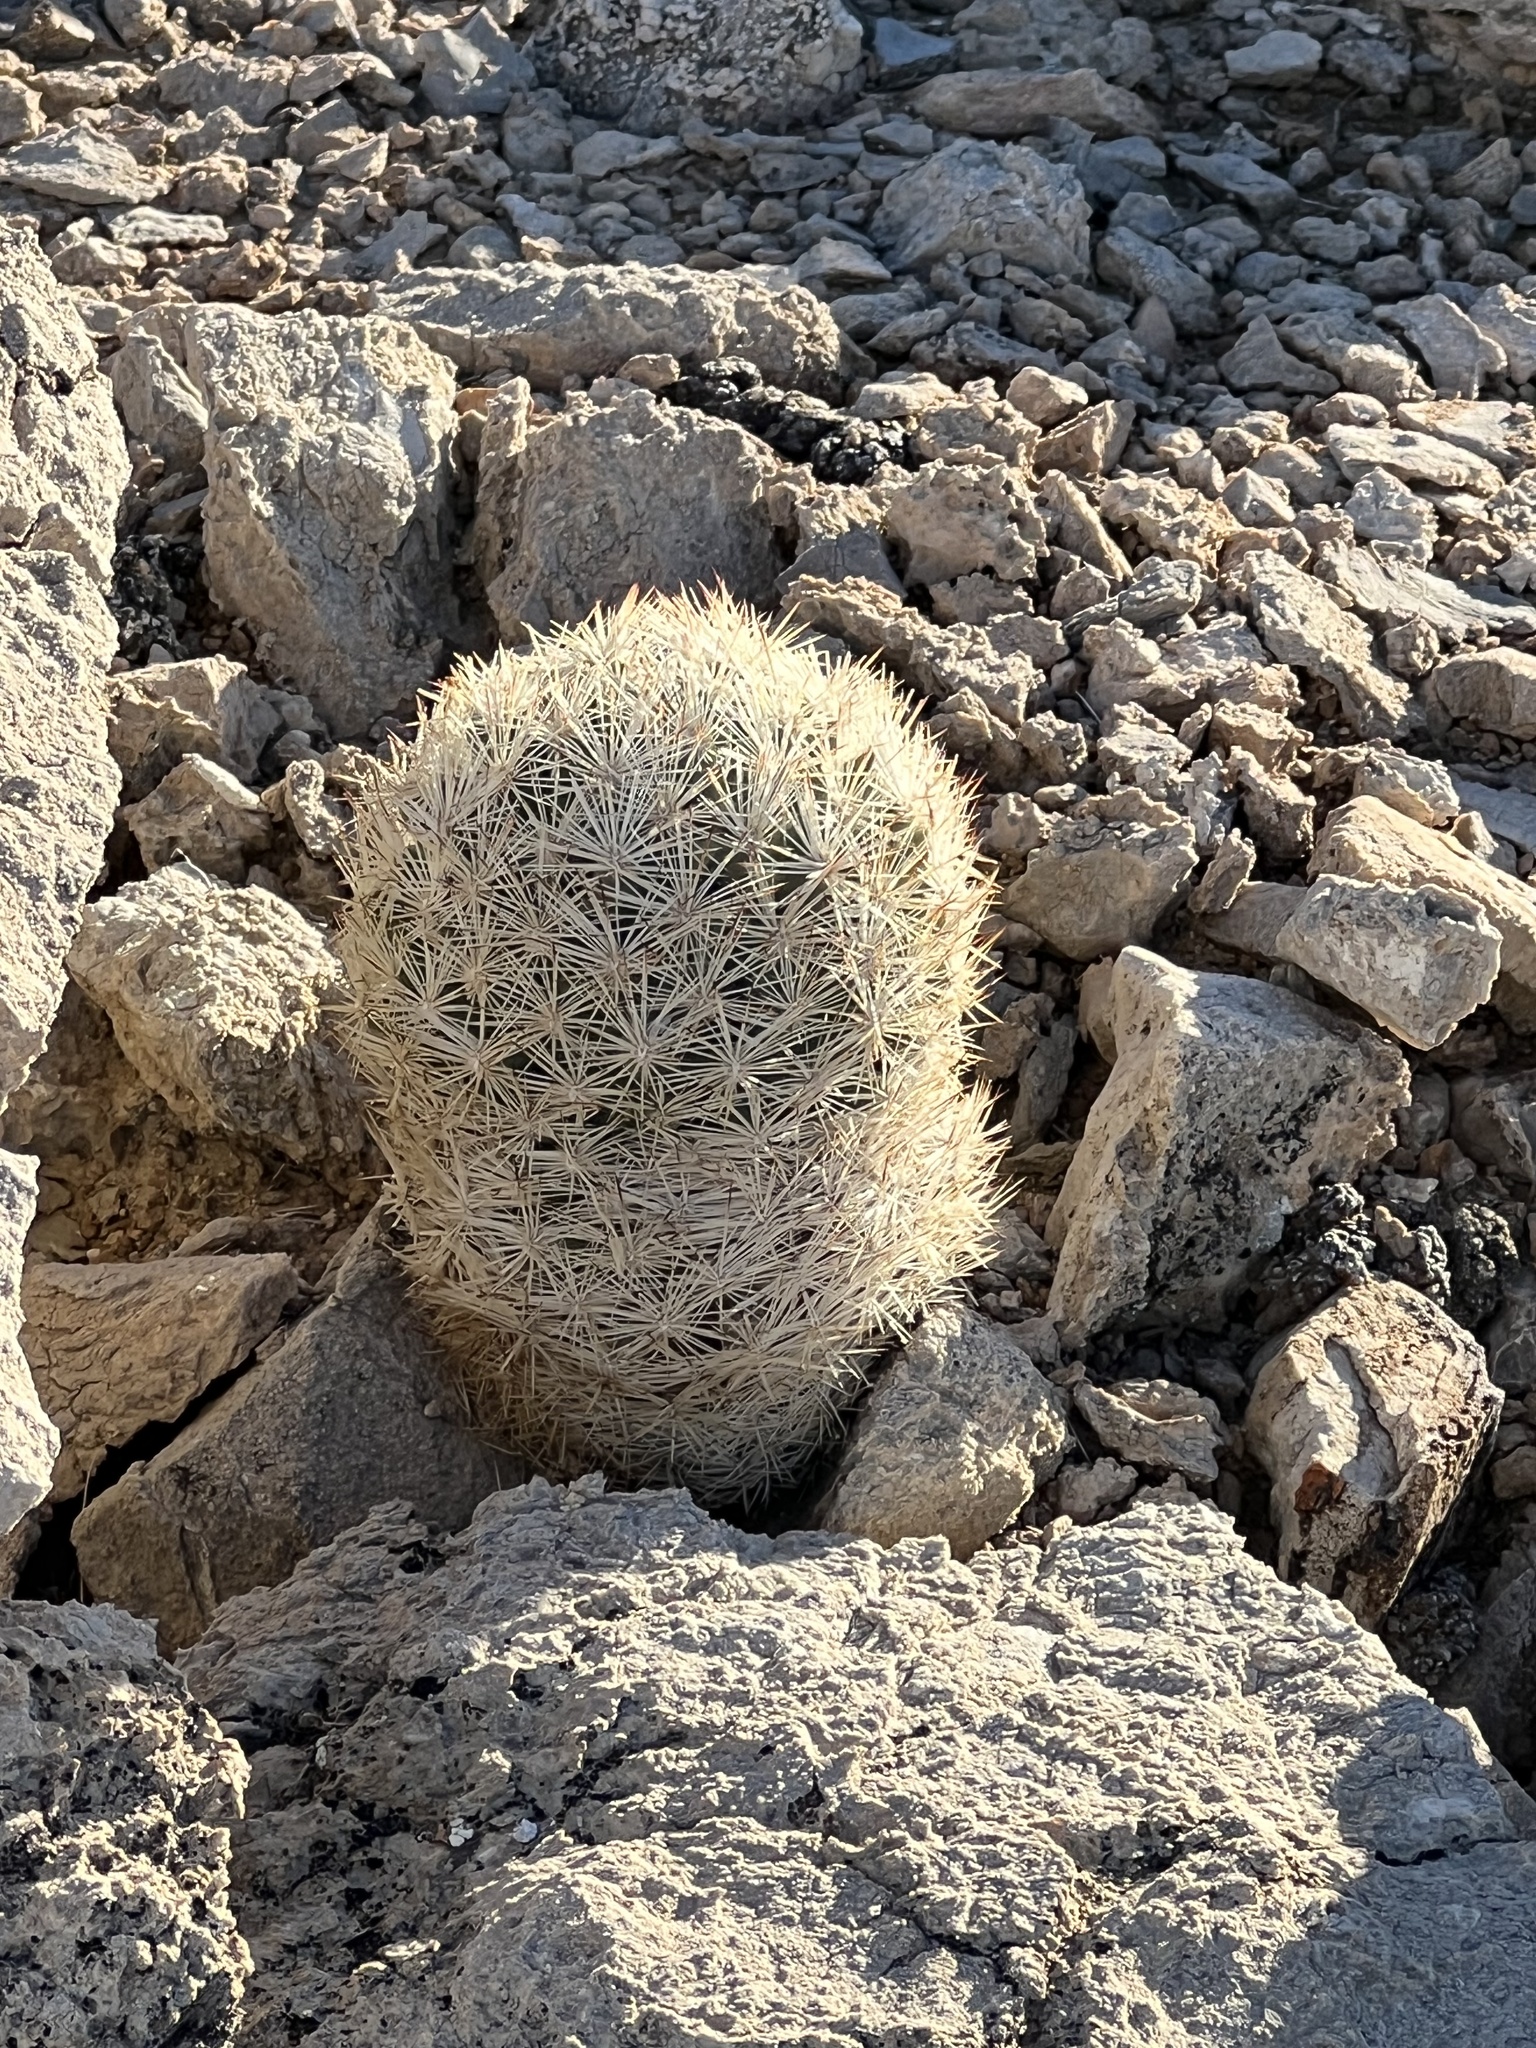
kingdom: Plantae
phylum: Tracheophyta
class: Magnoliopsida
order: Caryophyllales
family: Cactaceae
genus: Pelecyphora
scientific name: Pelecyphora dasyacantha
